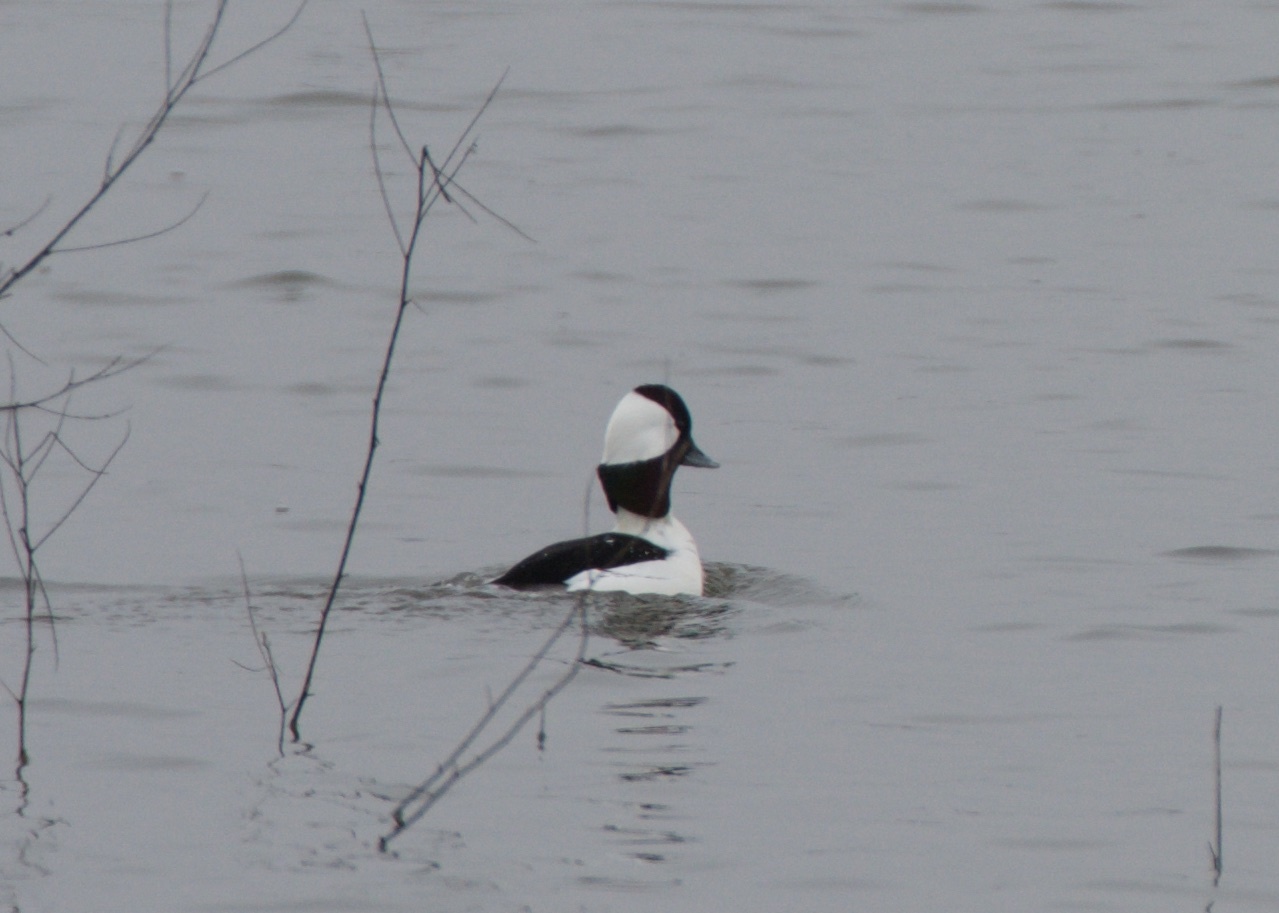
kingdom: Animalia
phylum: Chordata
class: Aves
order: Anseriformes
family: Anatidae
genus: Bucephala
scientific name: Bucephala albeola
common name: Bufflehead
